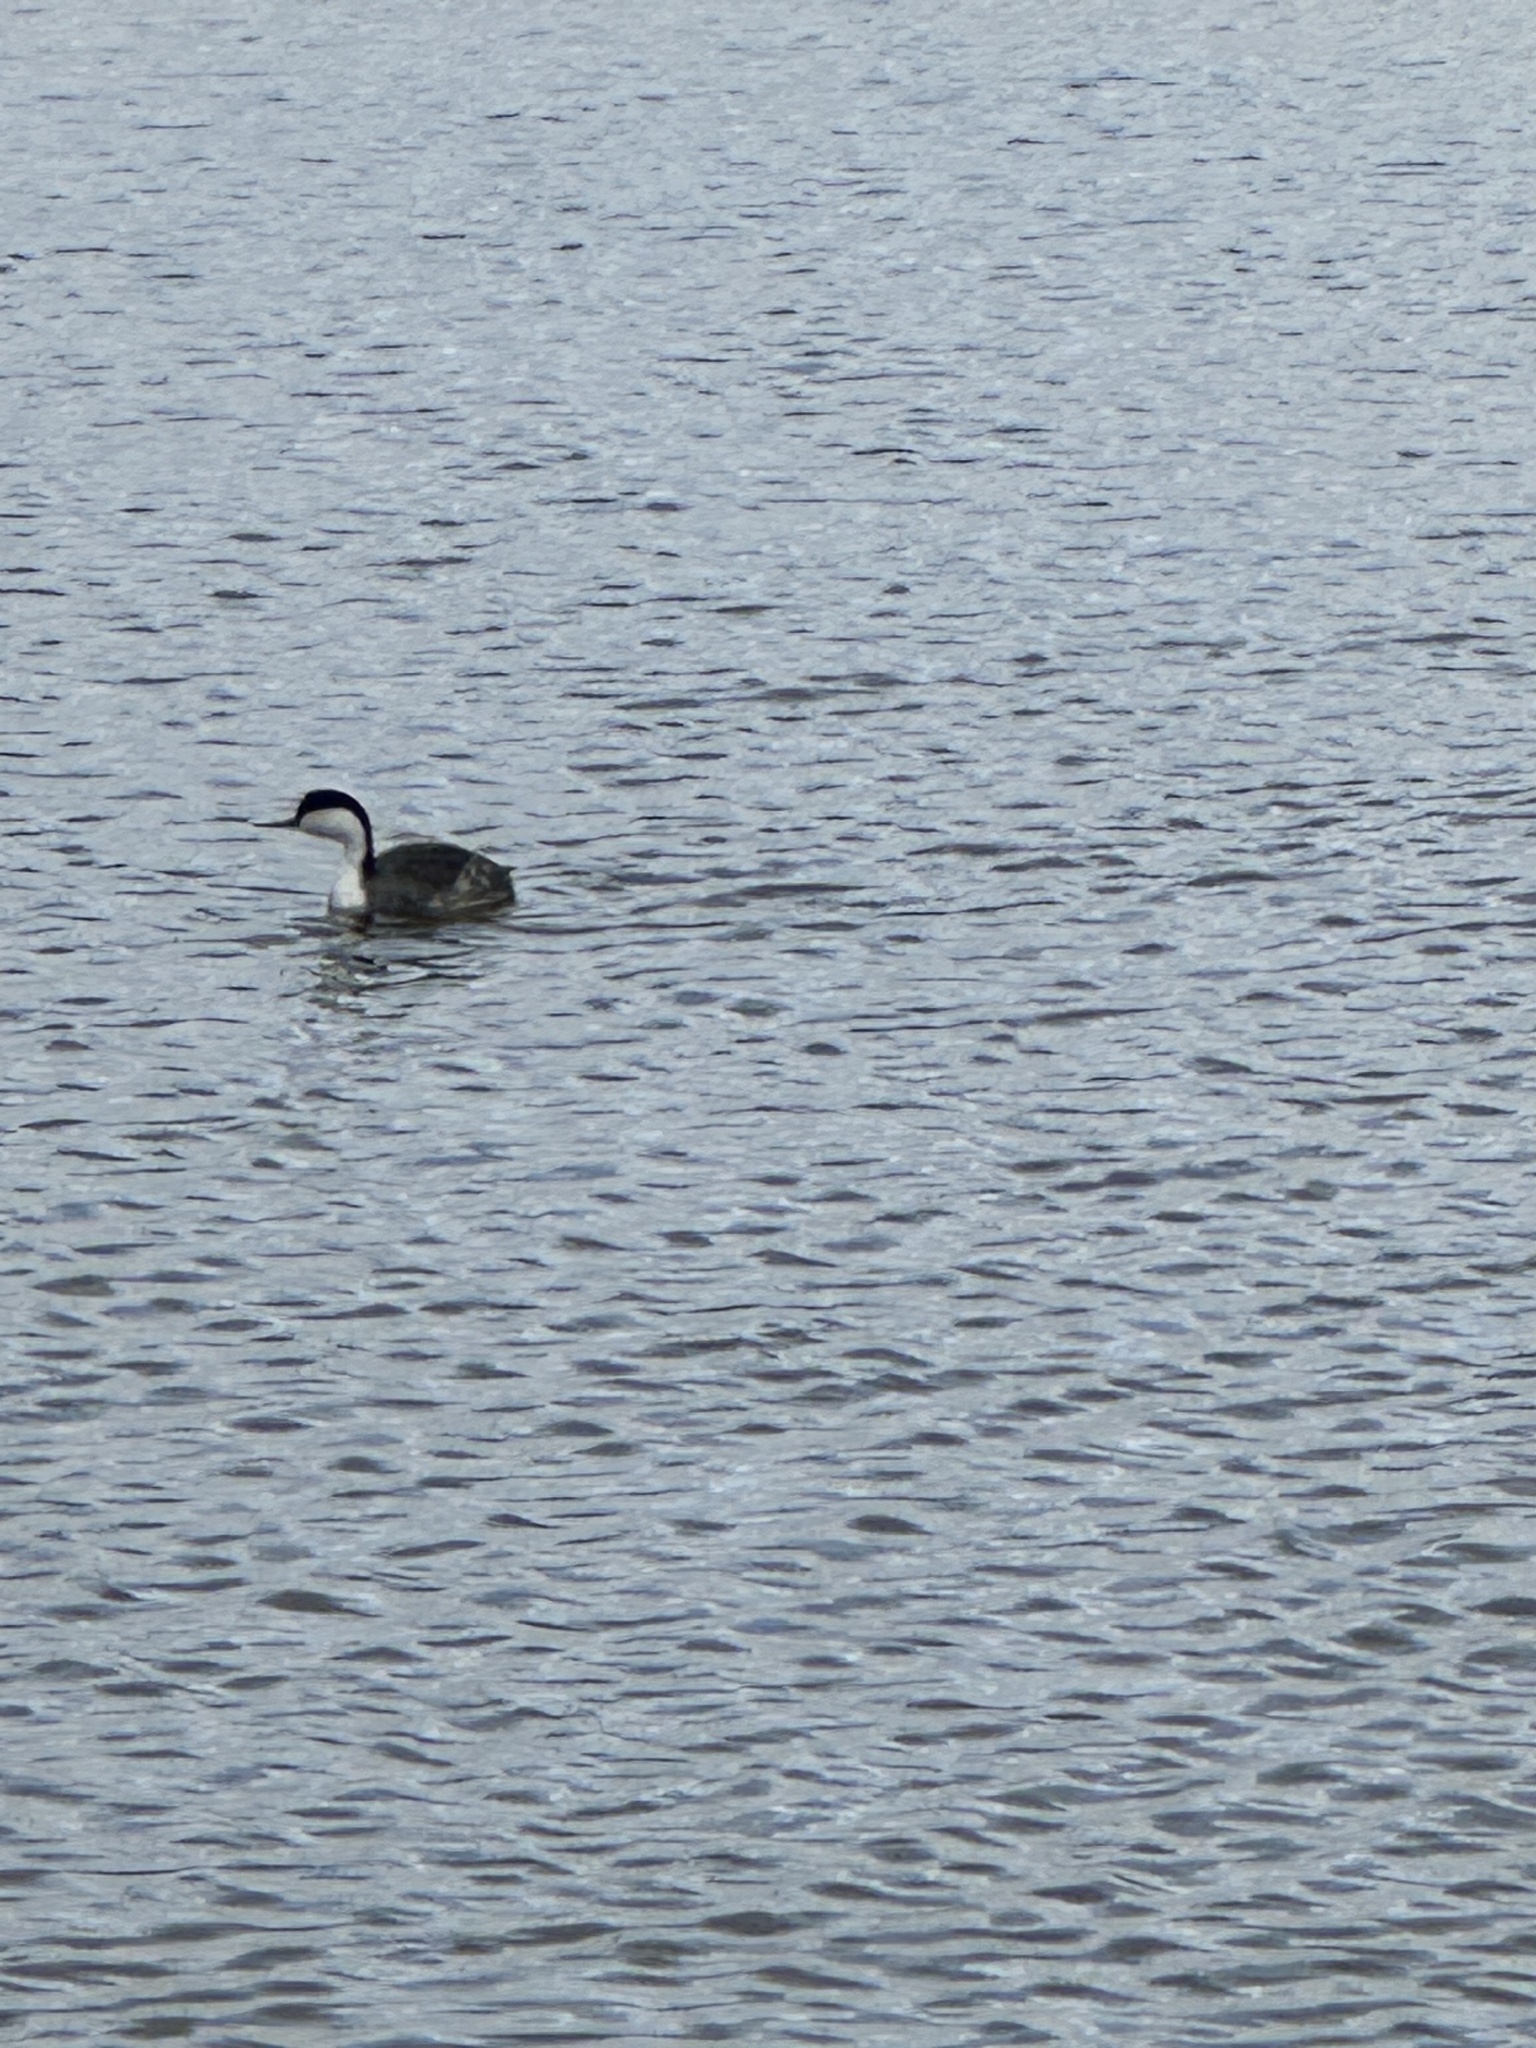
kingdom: Animalia
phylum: Chordata
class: Aves
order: Podicipediformes
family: Podicipedidae
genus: Aechmophorus
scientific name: Aechmophorus occidentalis
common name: Western grebe
